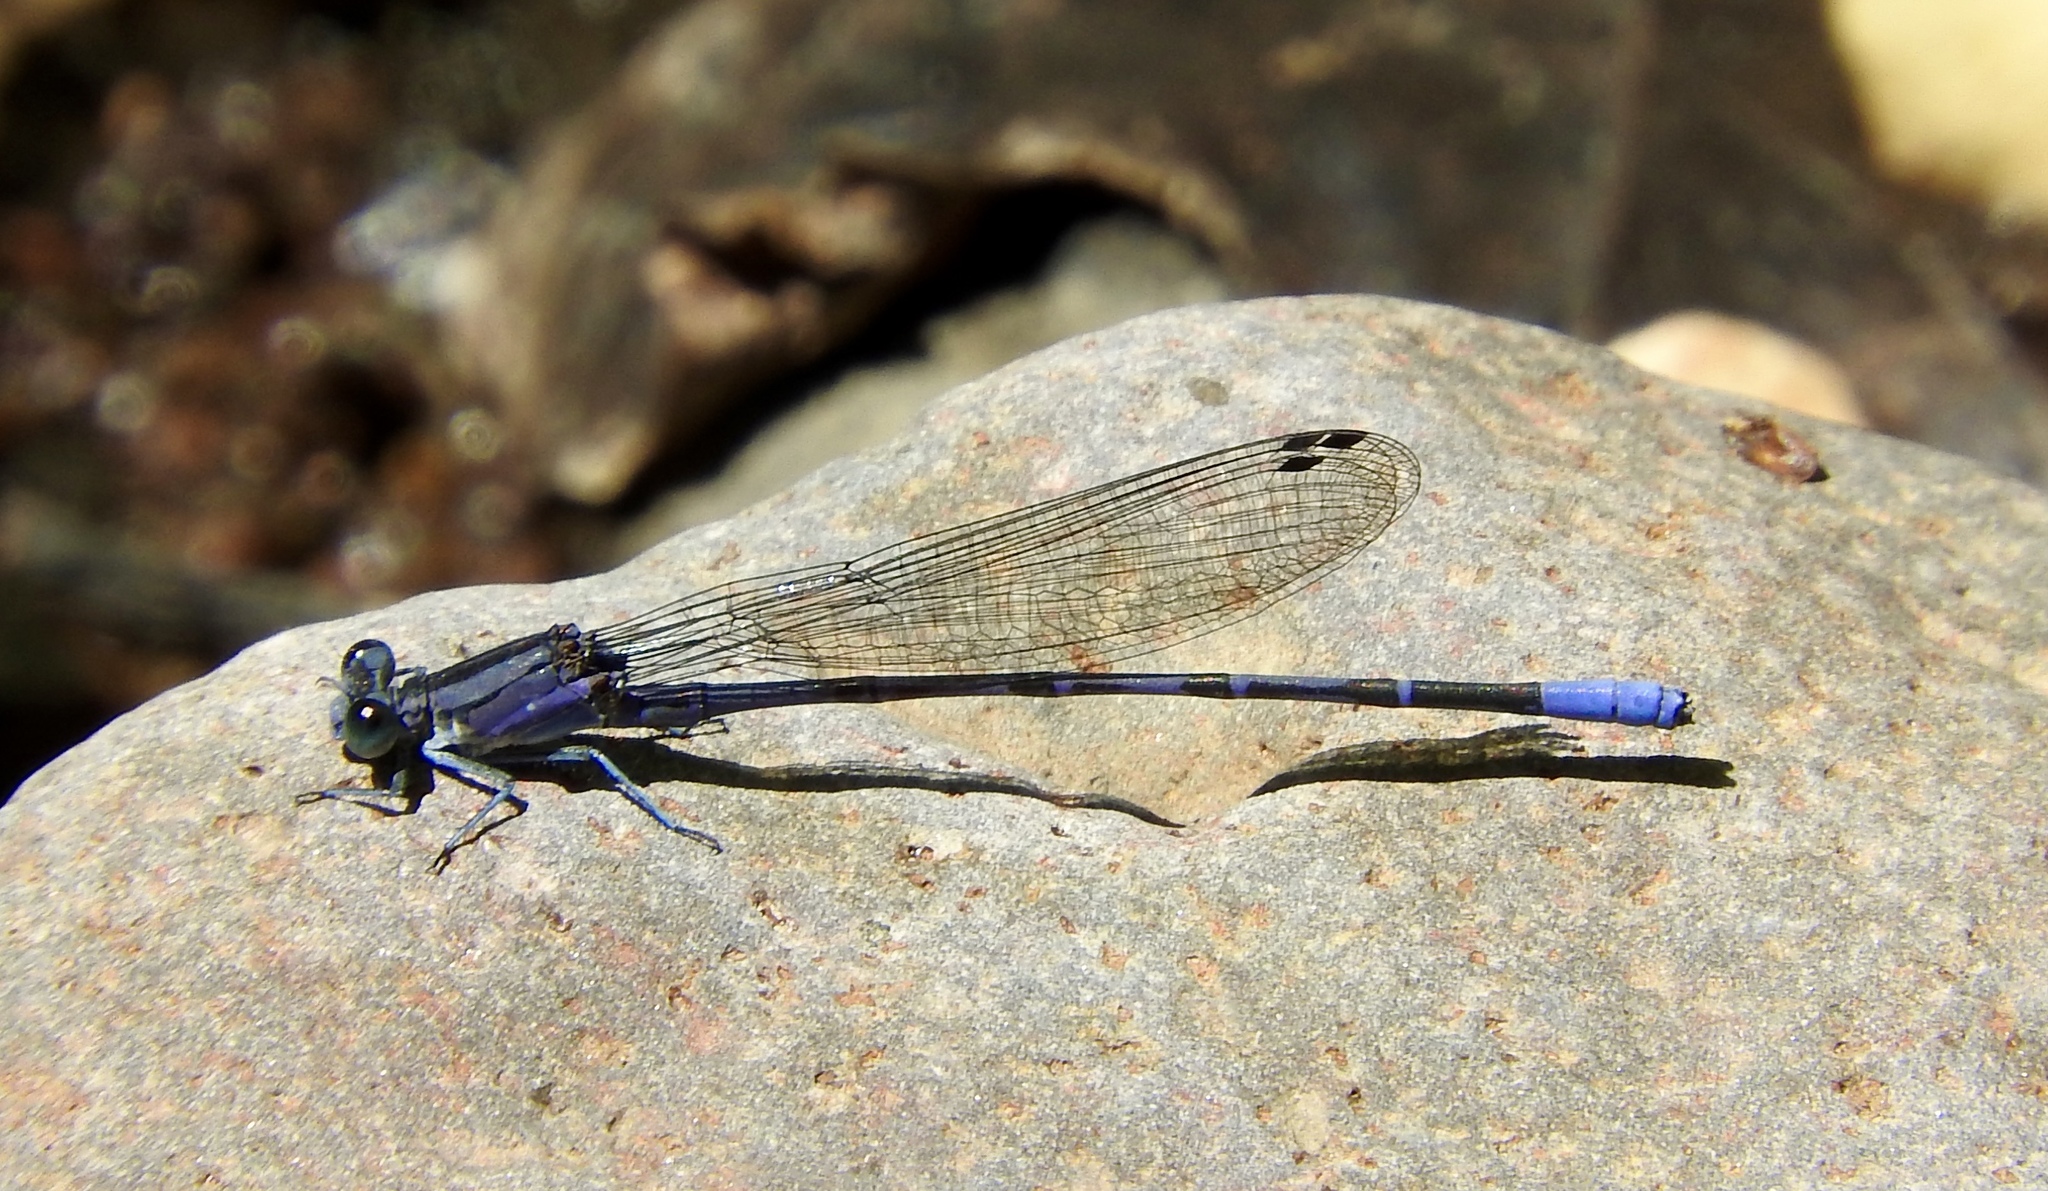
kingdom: Animalia
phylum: Arthropoda
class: Insecta
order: Odonata
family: Coenagrionidae
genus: Argia
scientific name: Argia funebris
